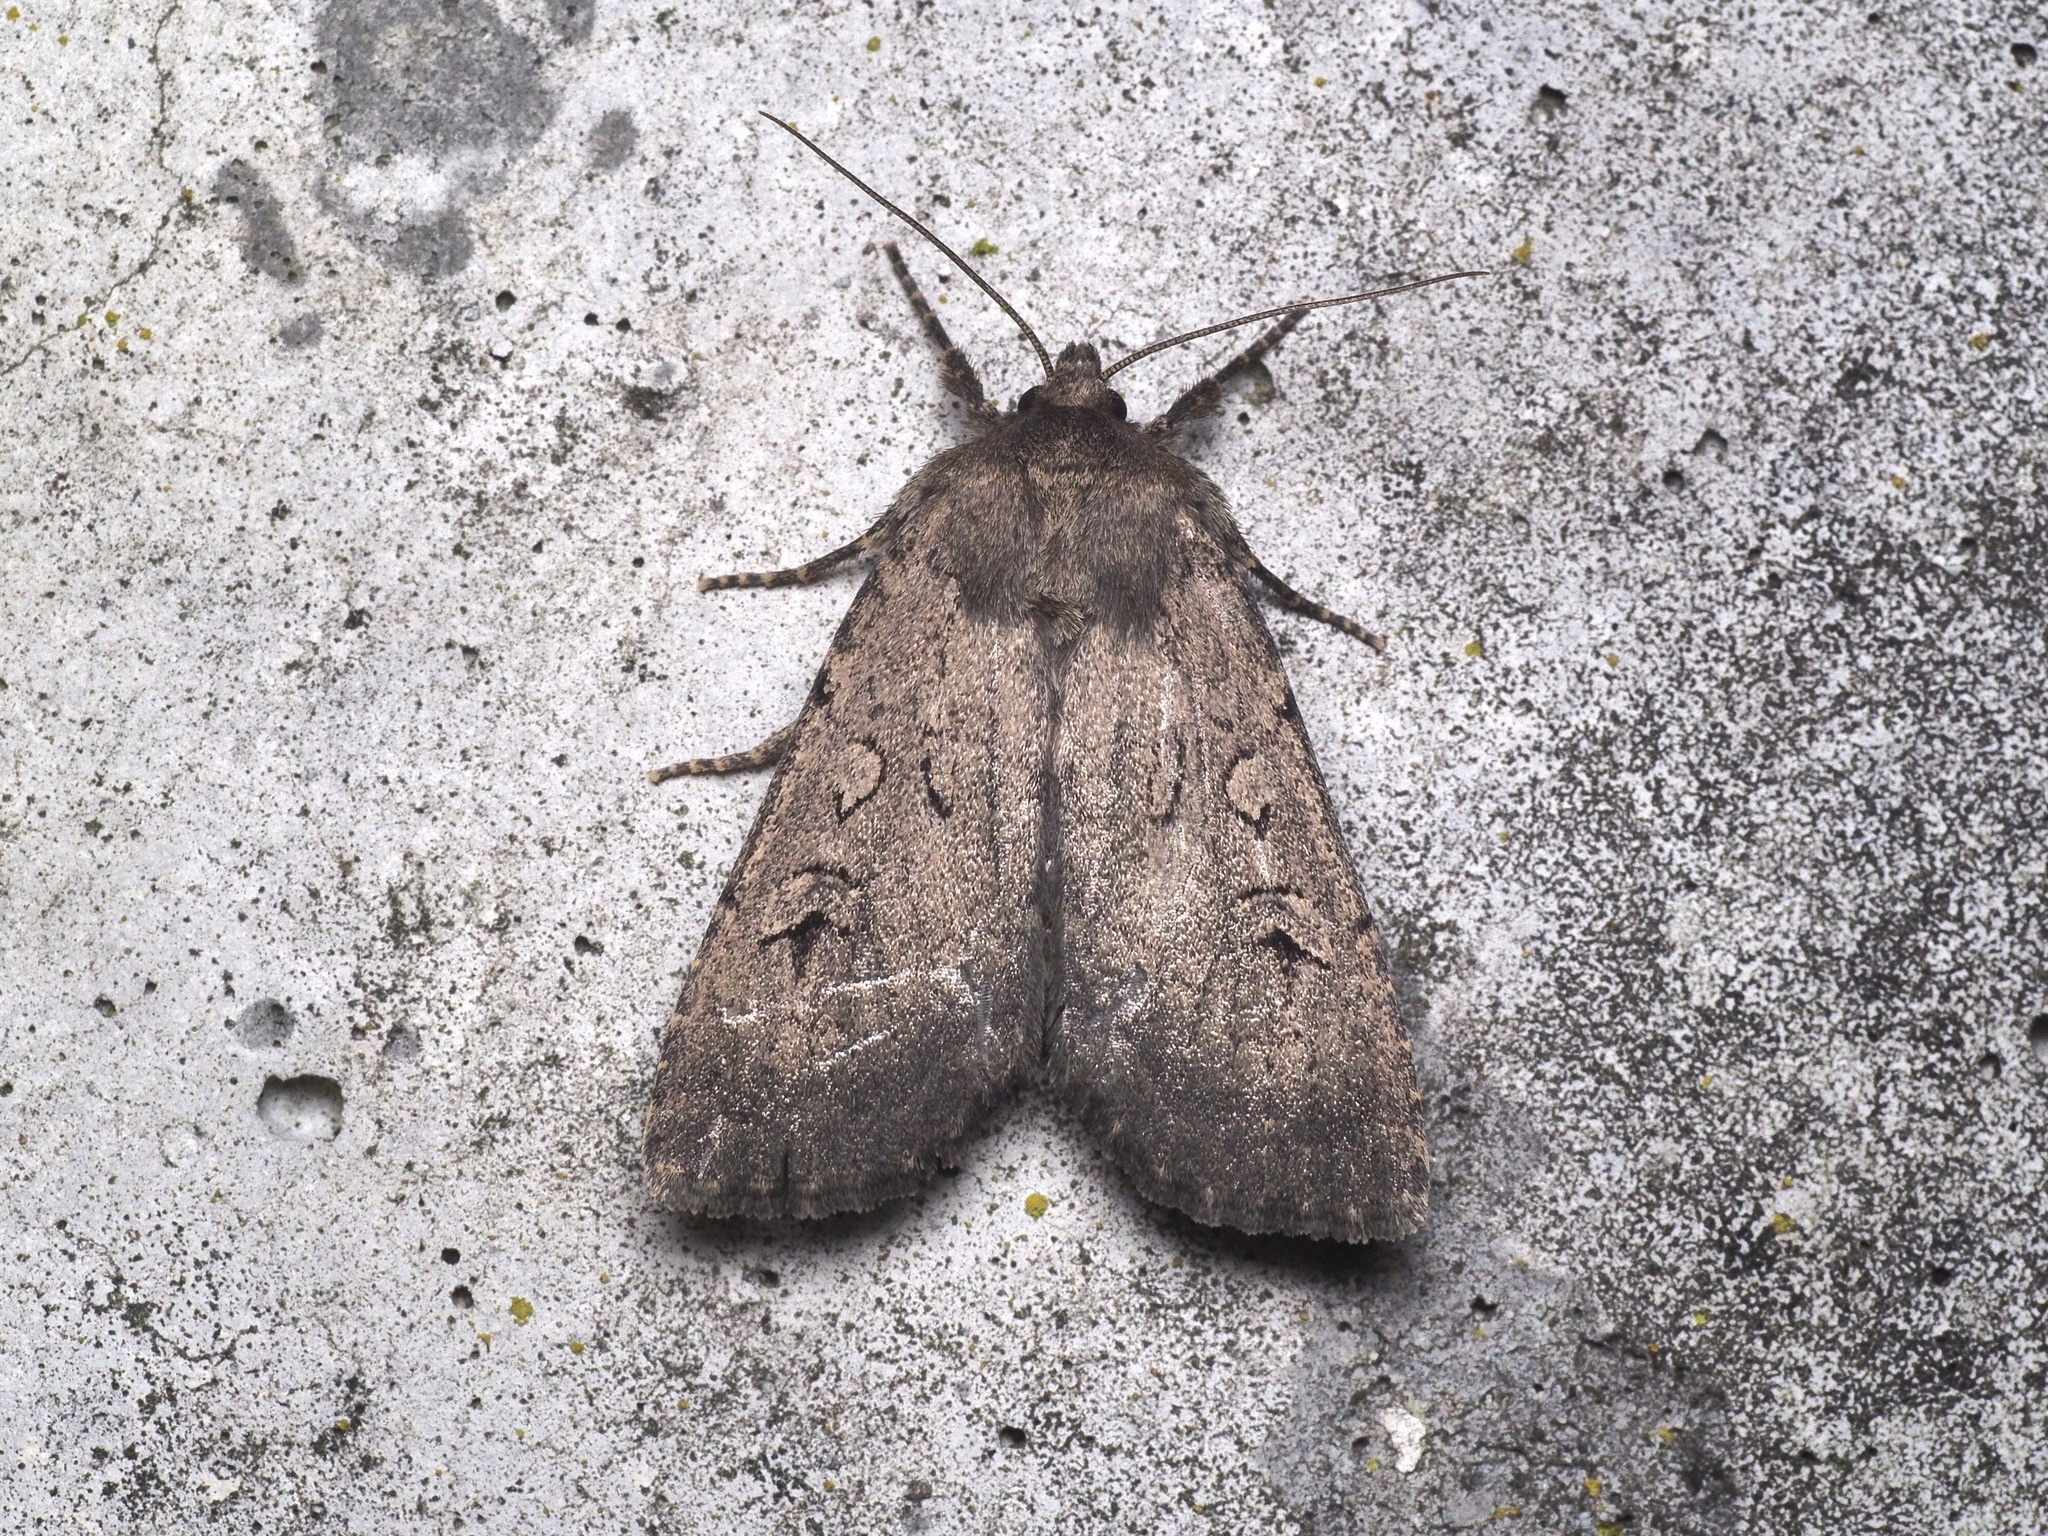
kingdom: Animalia
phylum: Arthropoda
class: Insecta
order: Lepidoptera
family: Noctuidae
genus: Graphiphora
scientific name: Graphiphora augur
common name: Double dart
